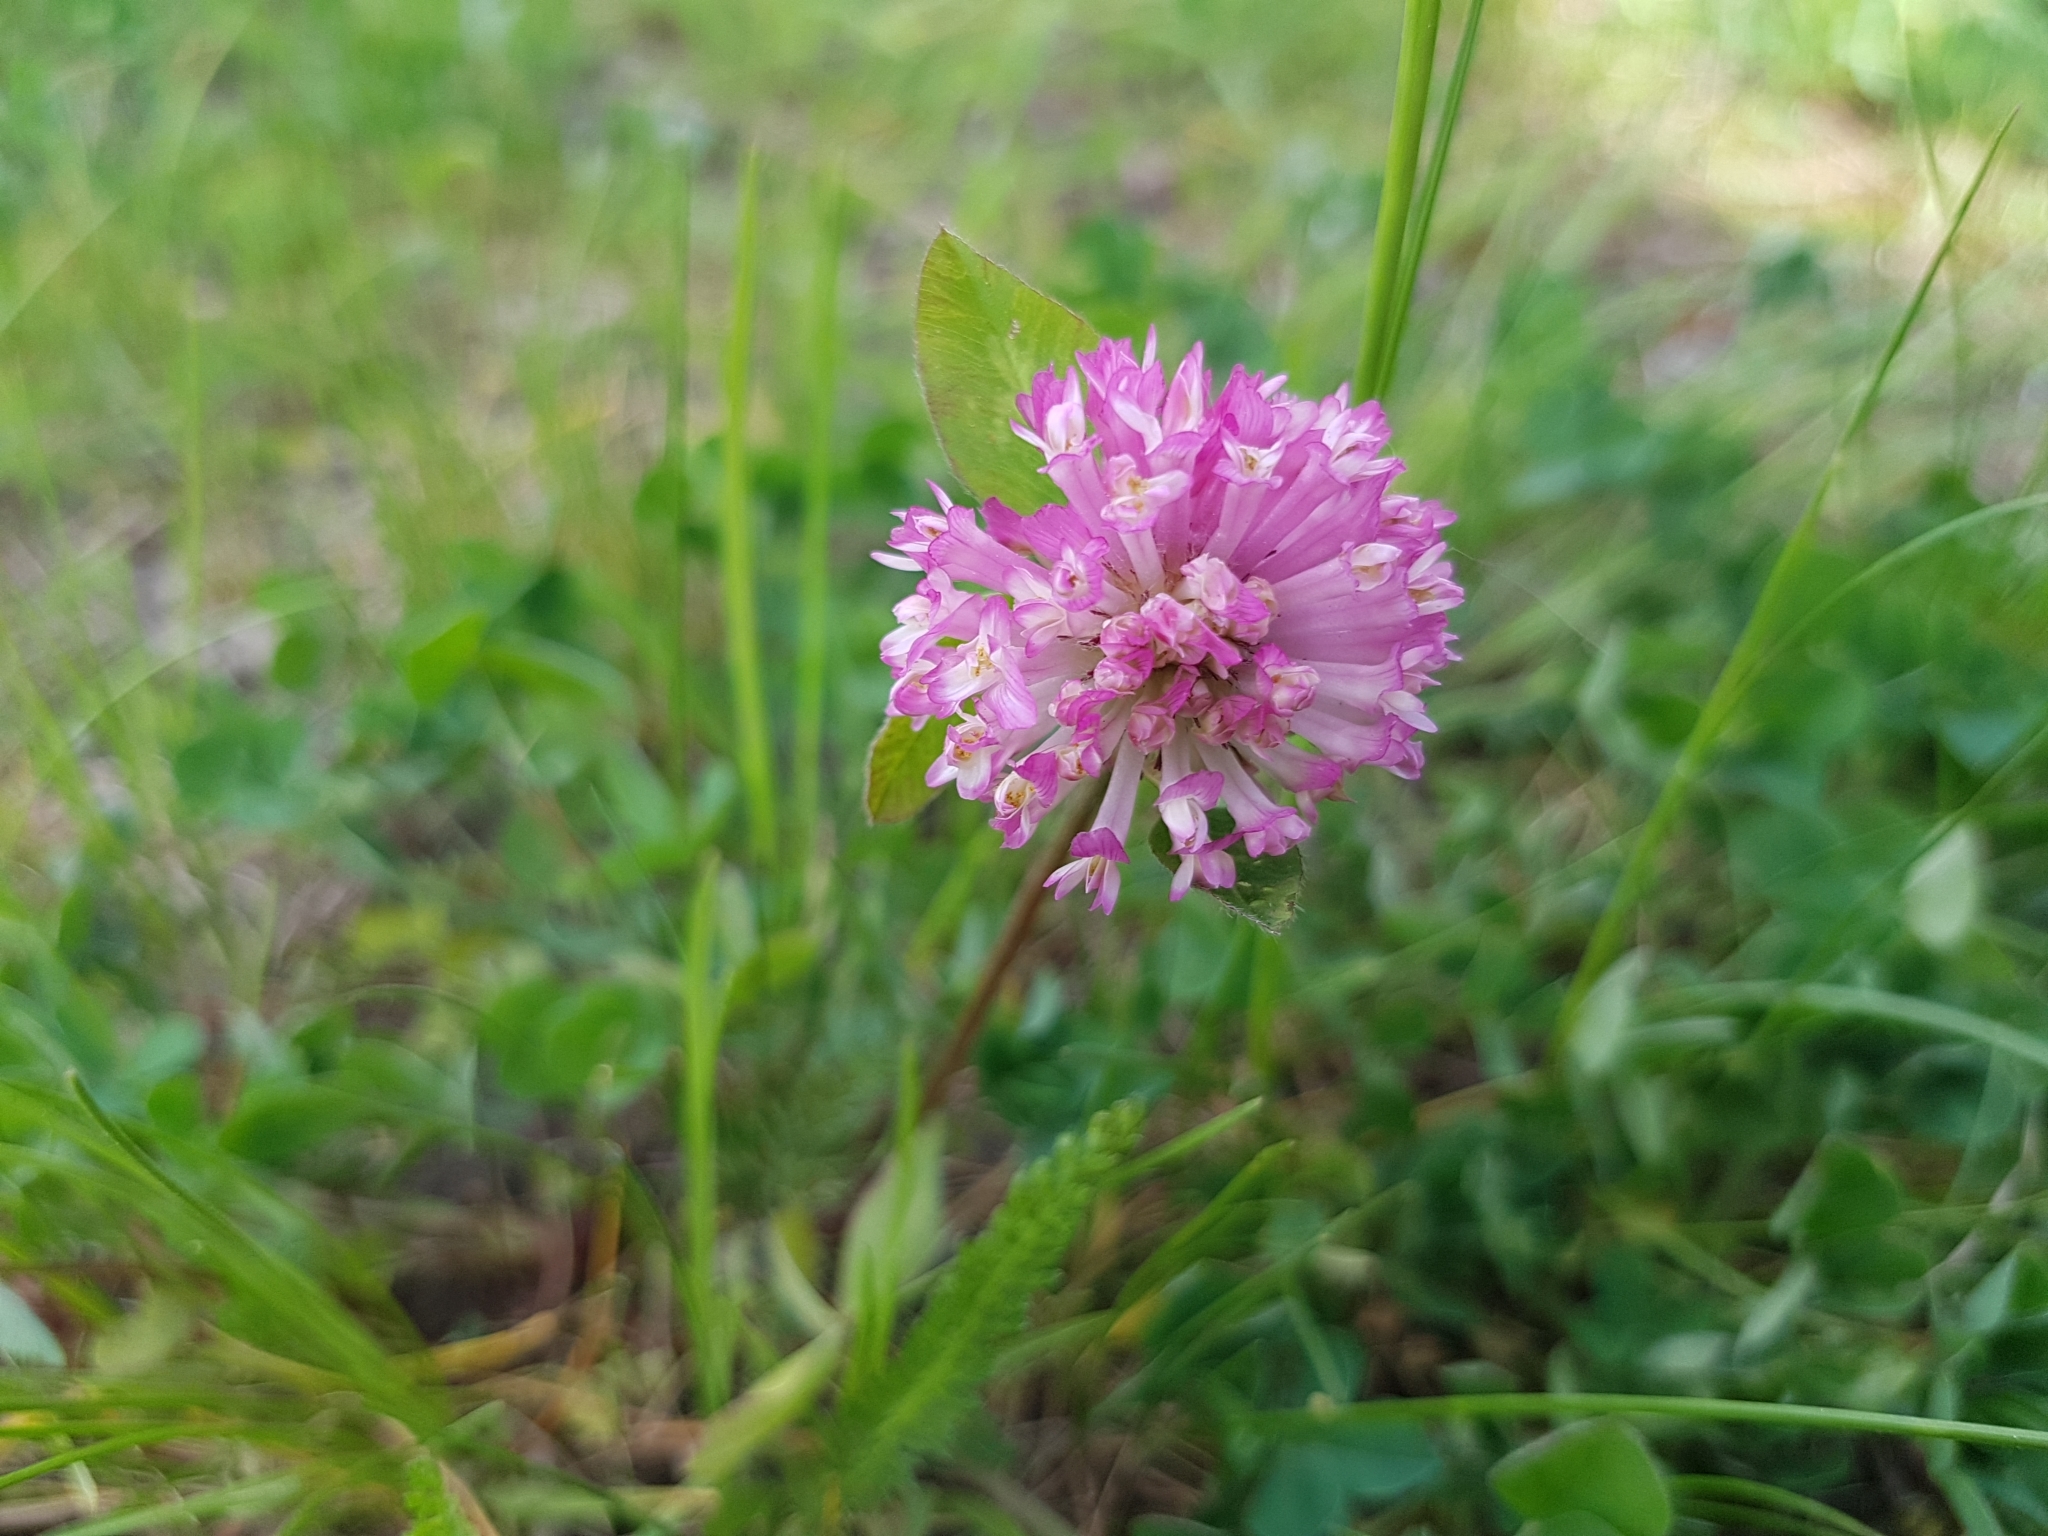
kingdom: Plantae
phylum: Tracheophyta
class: Magnoliopsida
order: Fabales
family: Fabaceae
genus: Trifolium
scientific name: Trifolium pratense
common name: Red clover
